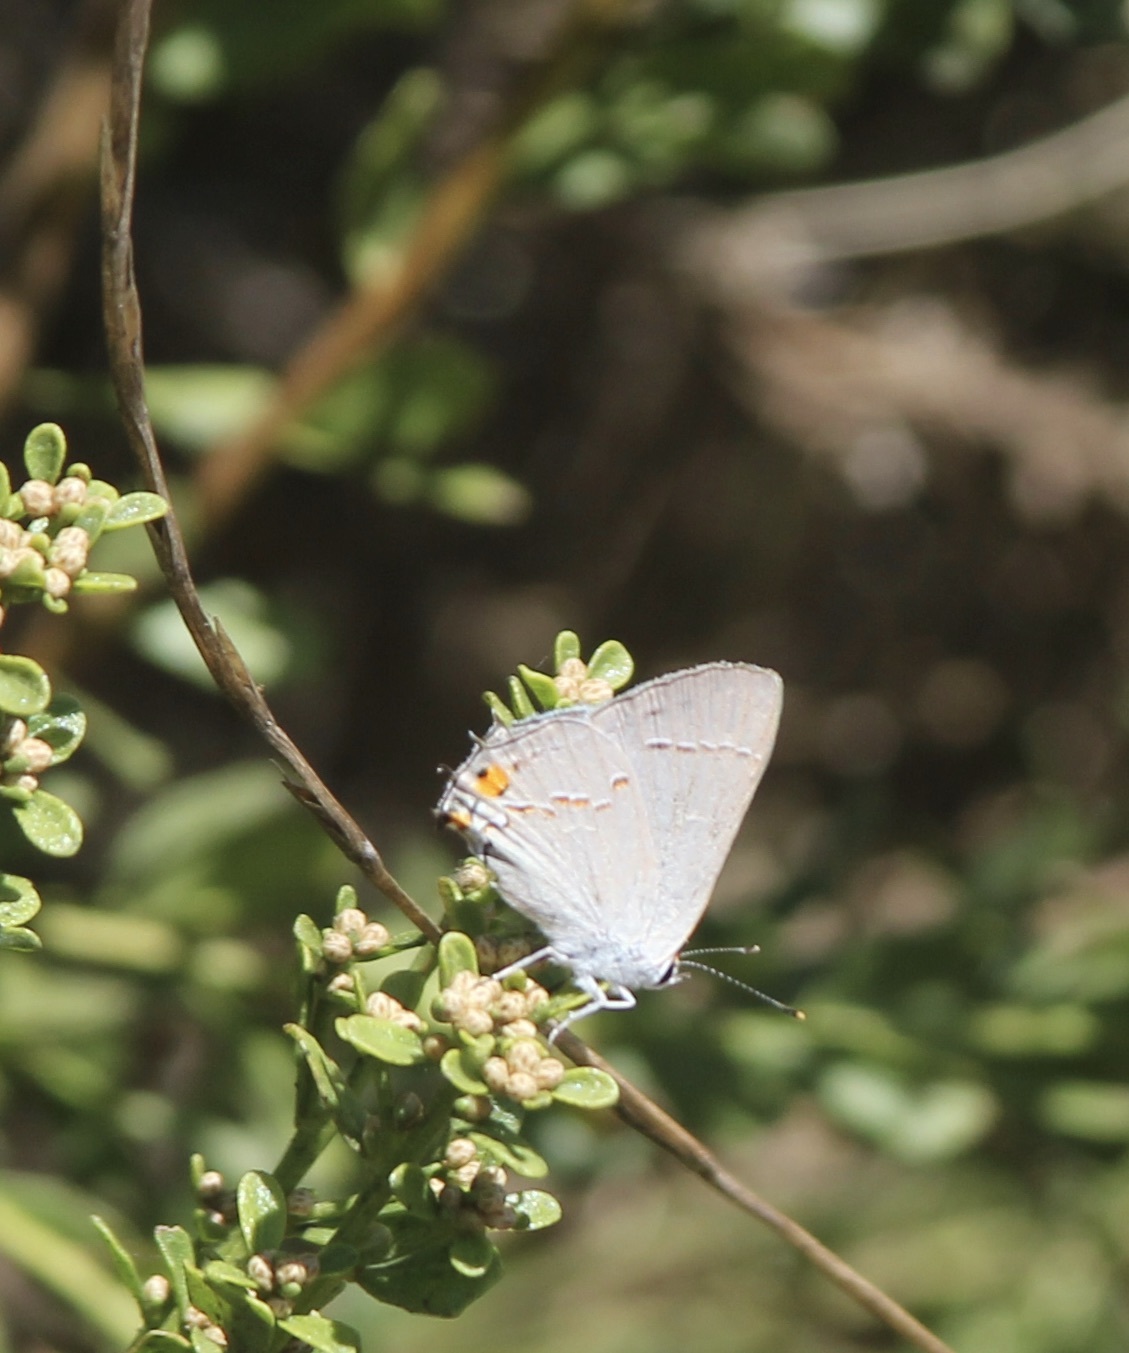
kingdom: Animalia
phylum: Arthropoda
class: Insecta
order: Lepidoptera
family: Lycaenidae
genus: Strymon
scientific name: Strymon melinus
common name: Gray hairstreak
